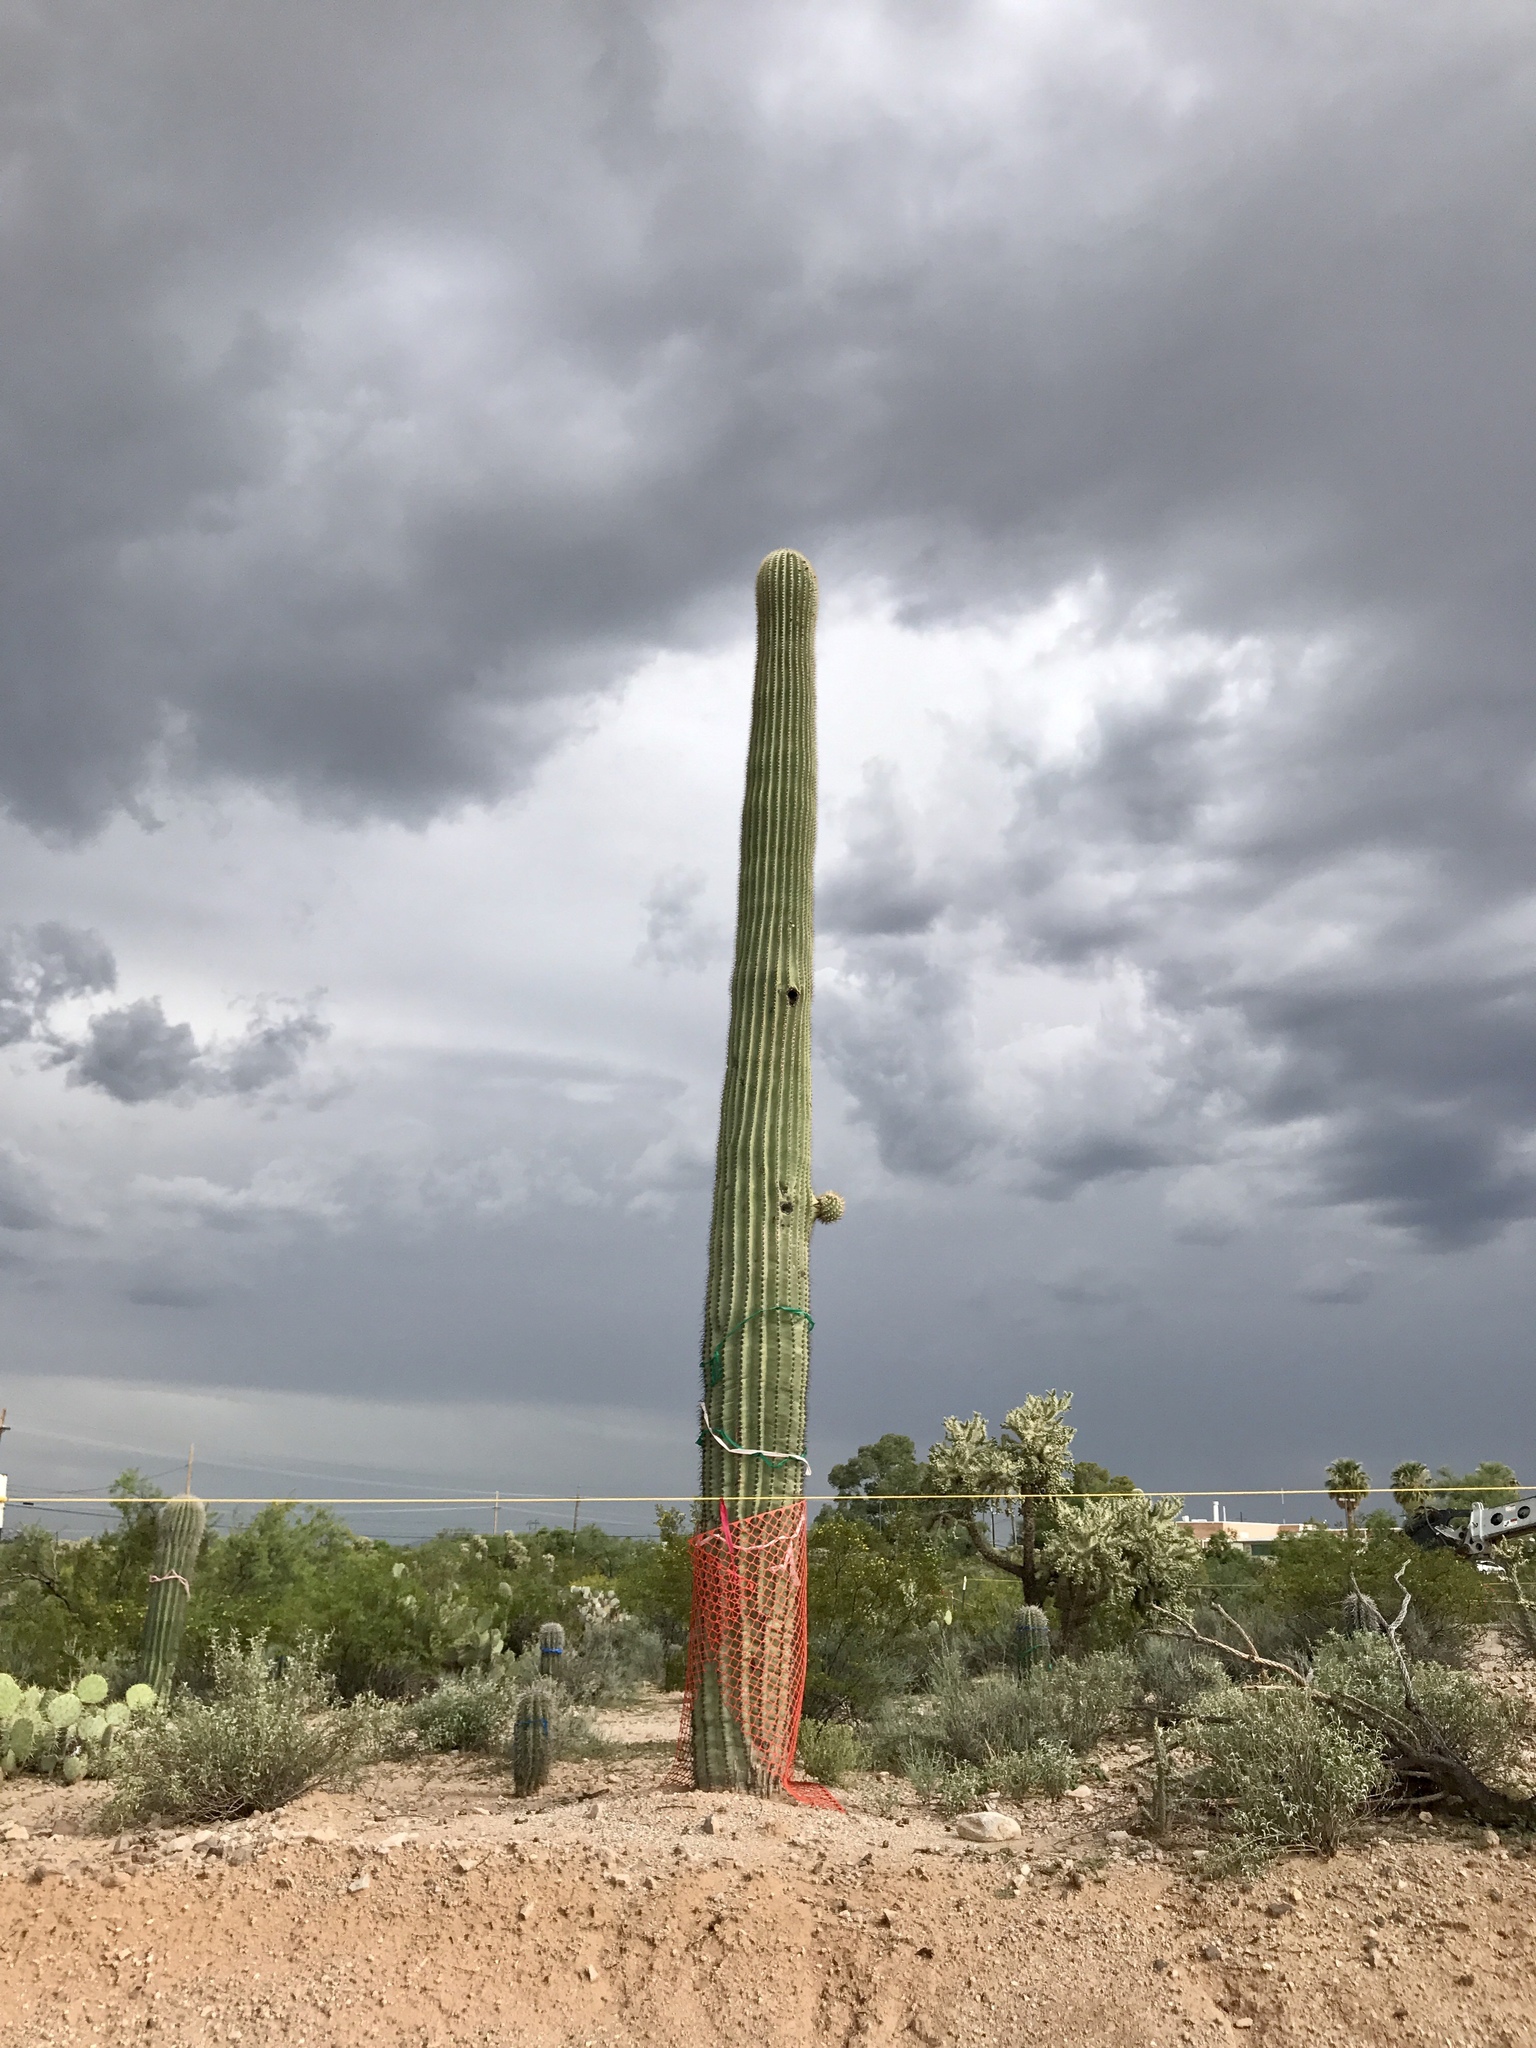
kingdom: Plantae
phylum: Tracheophyta
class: Magnoliopsida
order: Caryophyllales
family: Cactaceae
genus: Carnegiea
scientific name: Carnegiea gigantea
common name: Saguaro
